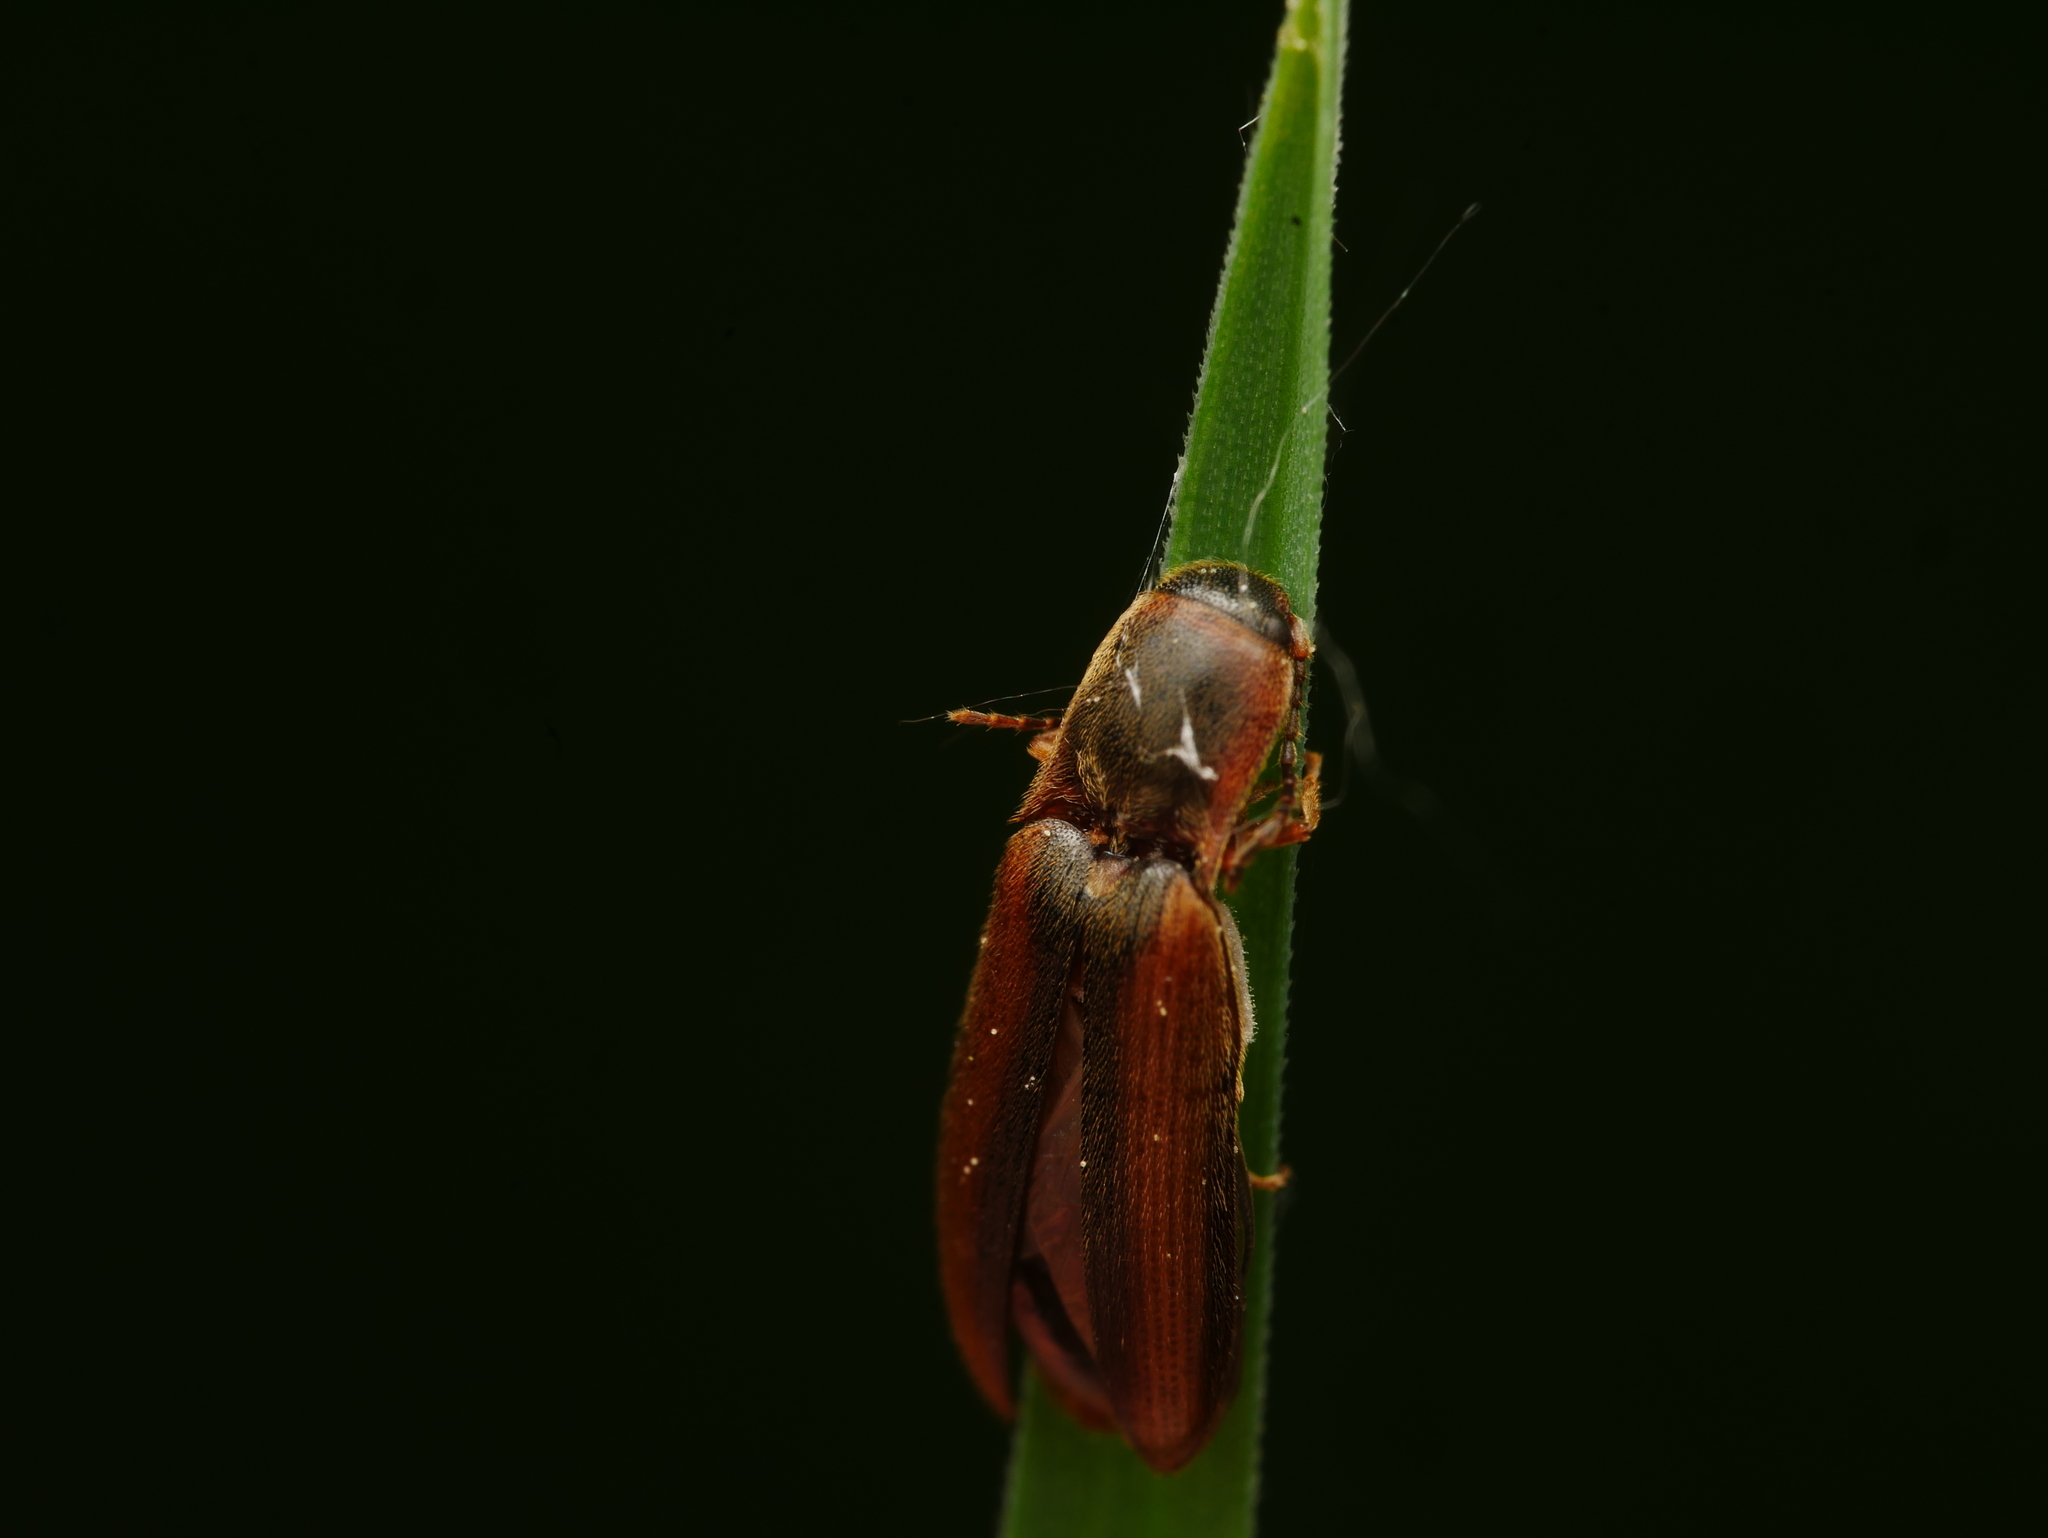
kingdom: Animalia
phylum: Arthropoda
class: Insecta
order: Coleoptera
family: Elateridae
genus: Dalopius
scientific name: Dalopius marginatus
